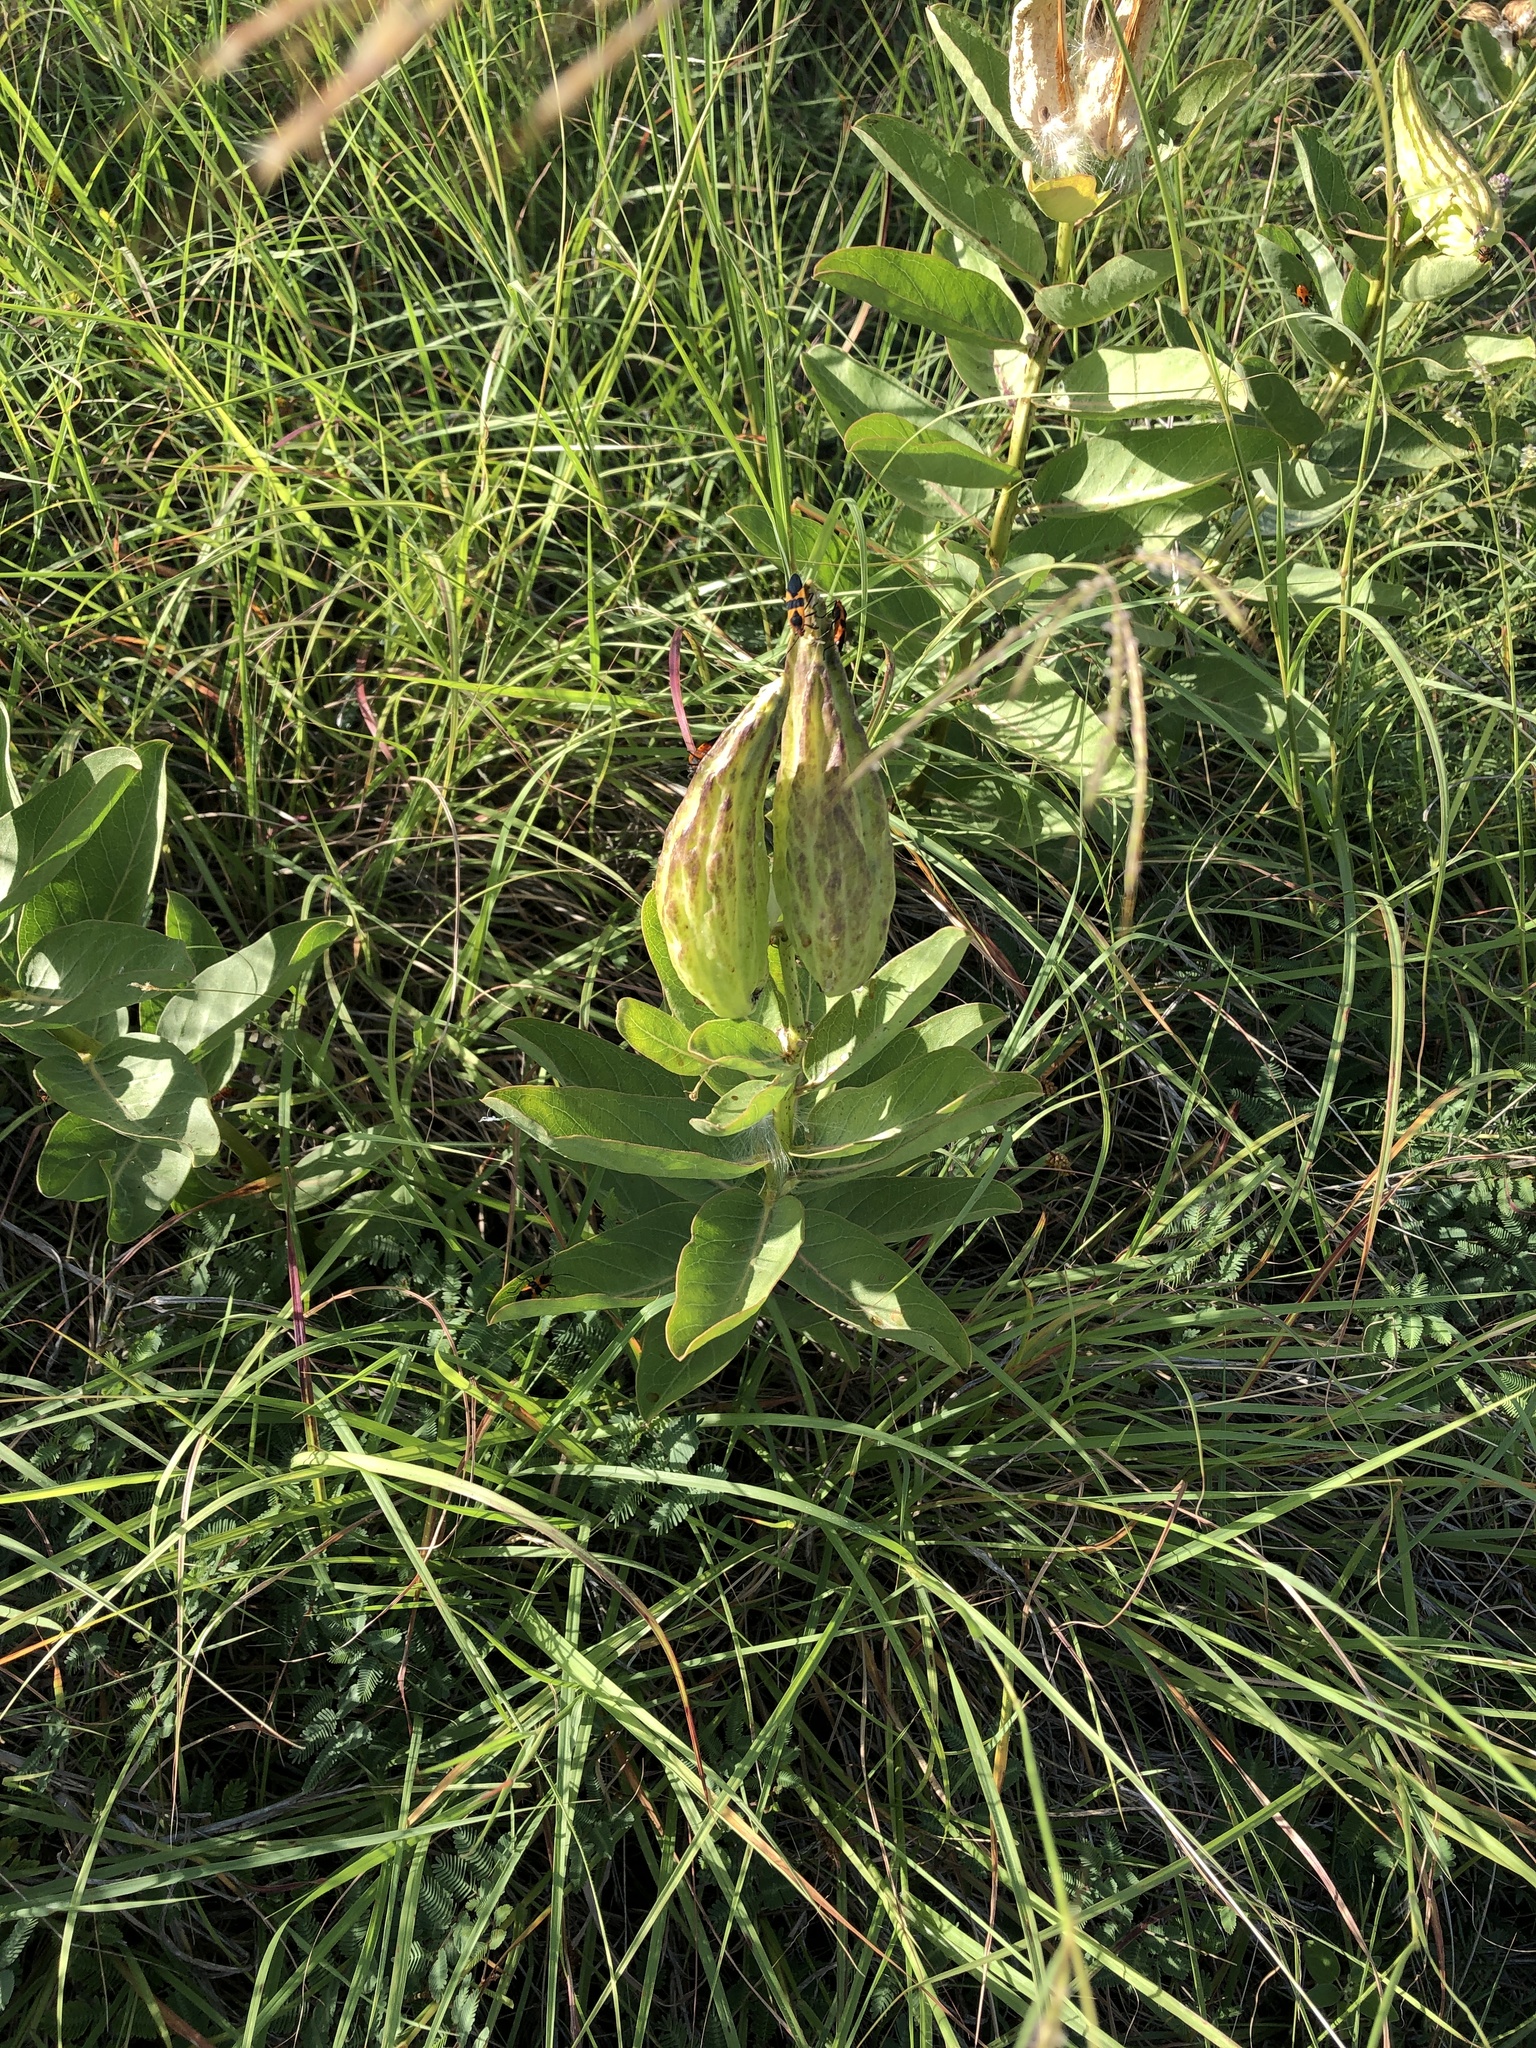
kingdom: Plantae
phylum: Tracheophyta
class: Magnoliopsida
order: Gentianales
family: Apocynaceae
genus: Asclepias
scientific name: Asclepias viridis
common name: Antelope-horns
